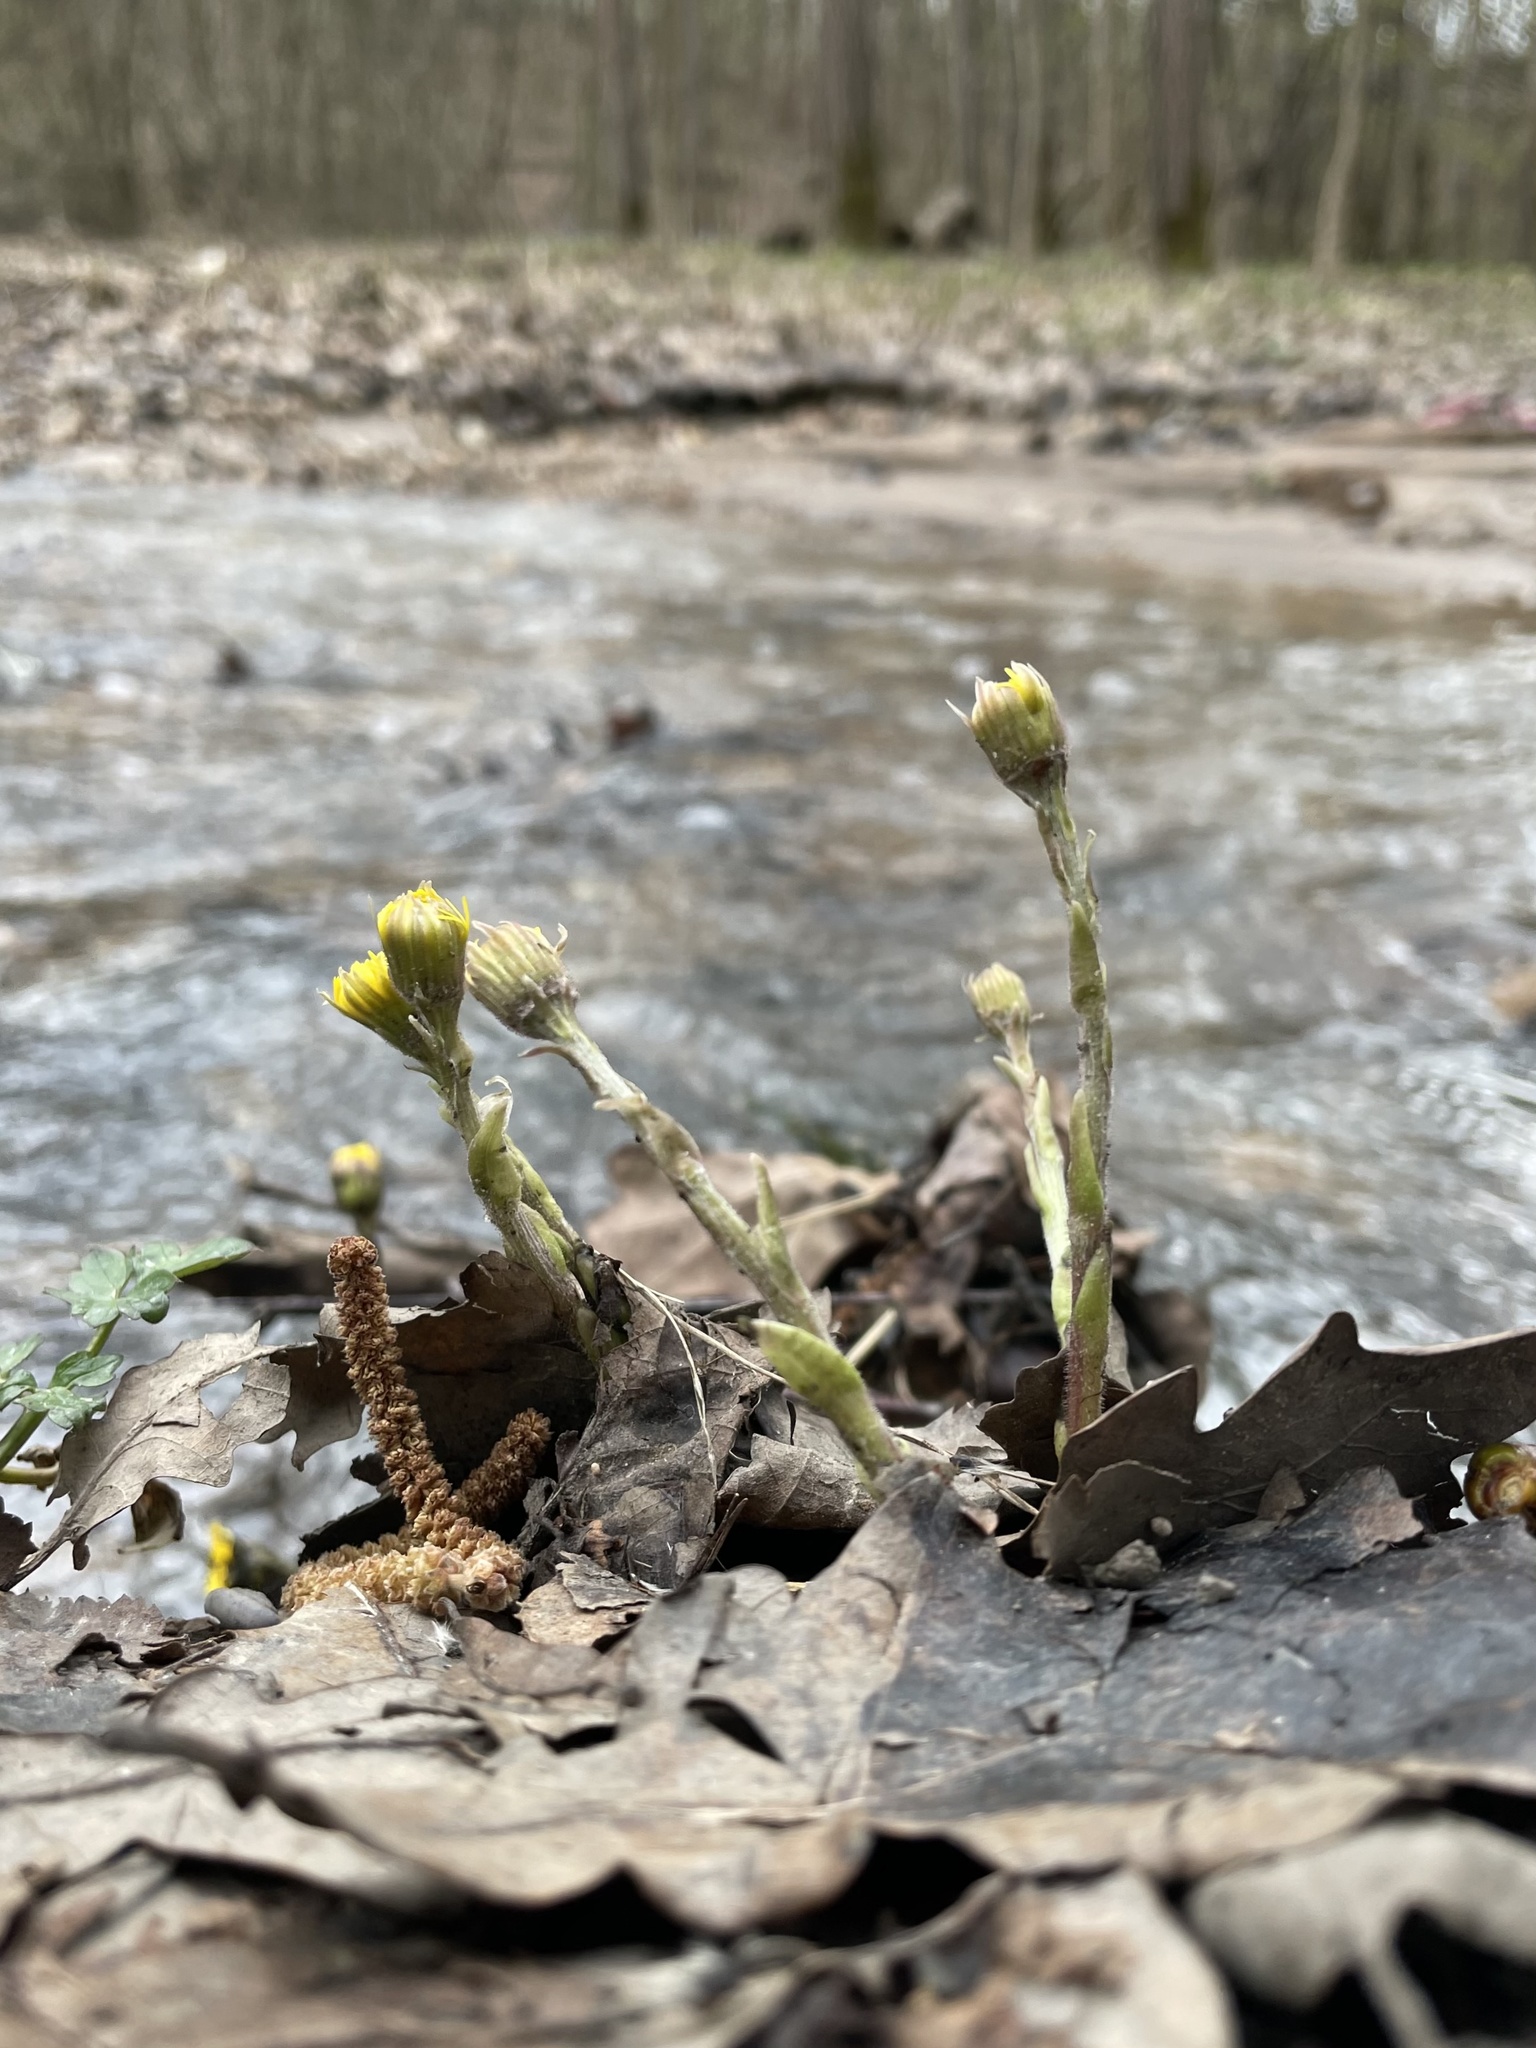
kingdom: Plantae
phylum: Tracheophyta
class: Magnoliopsida
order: Asterales
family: Asteraceae
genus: Tussilago
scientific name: Tussilago farfara
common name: Coltsfoot
